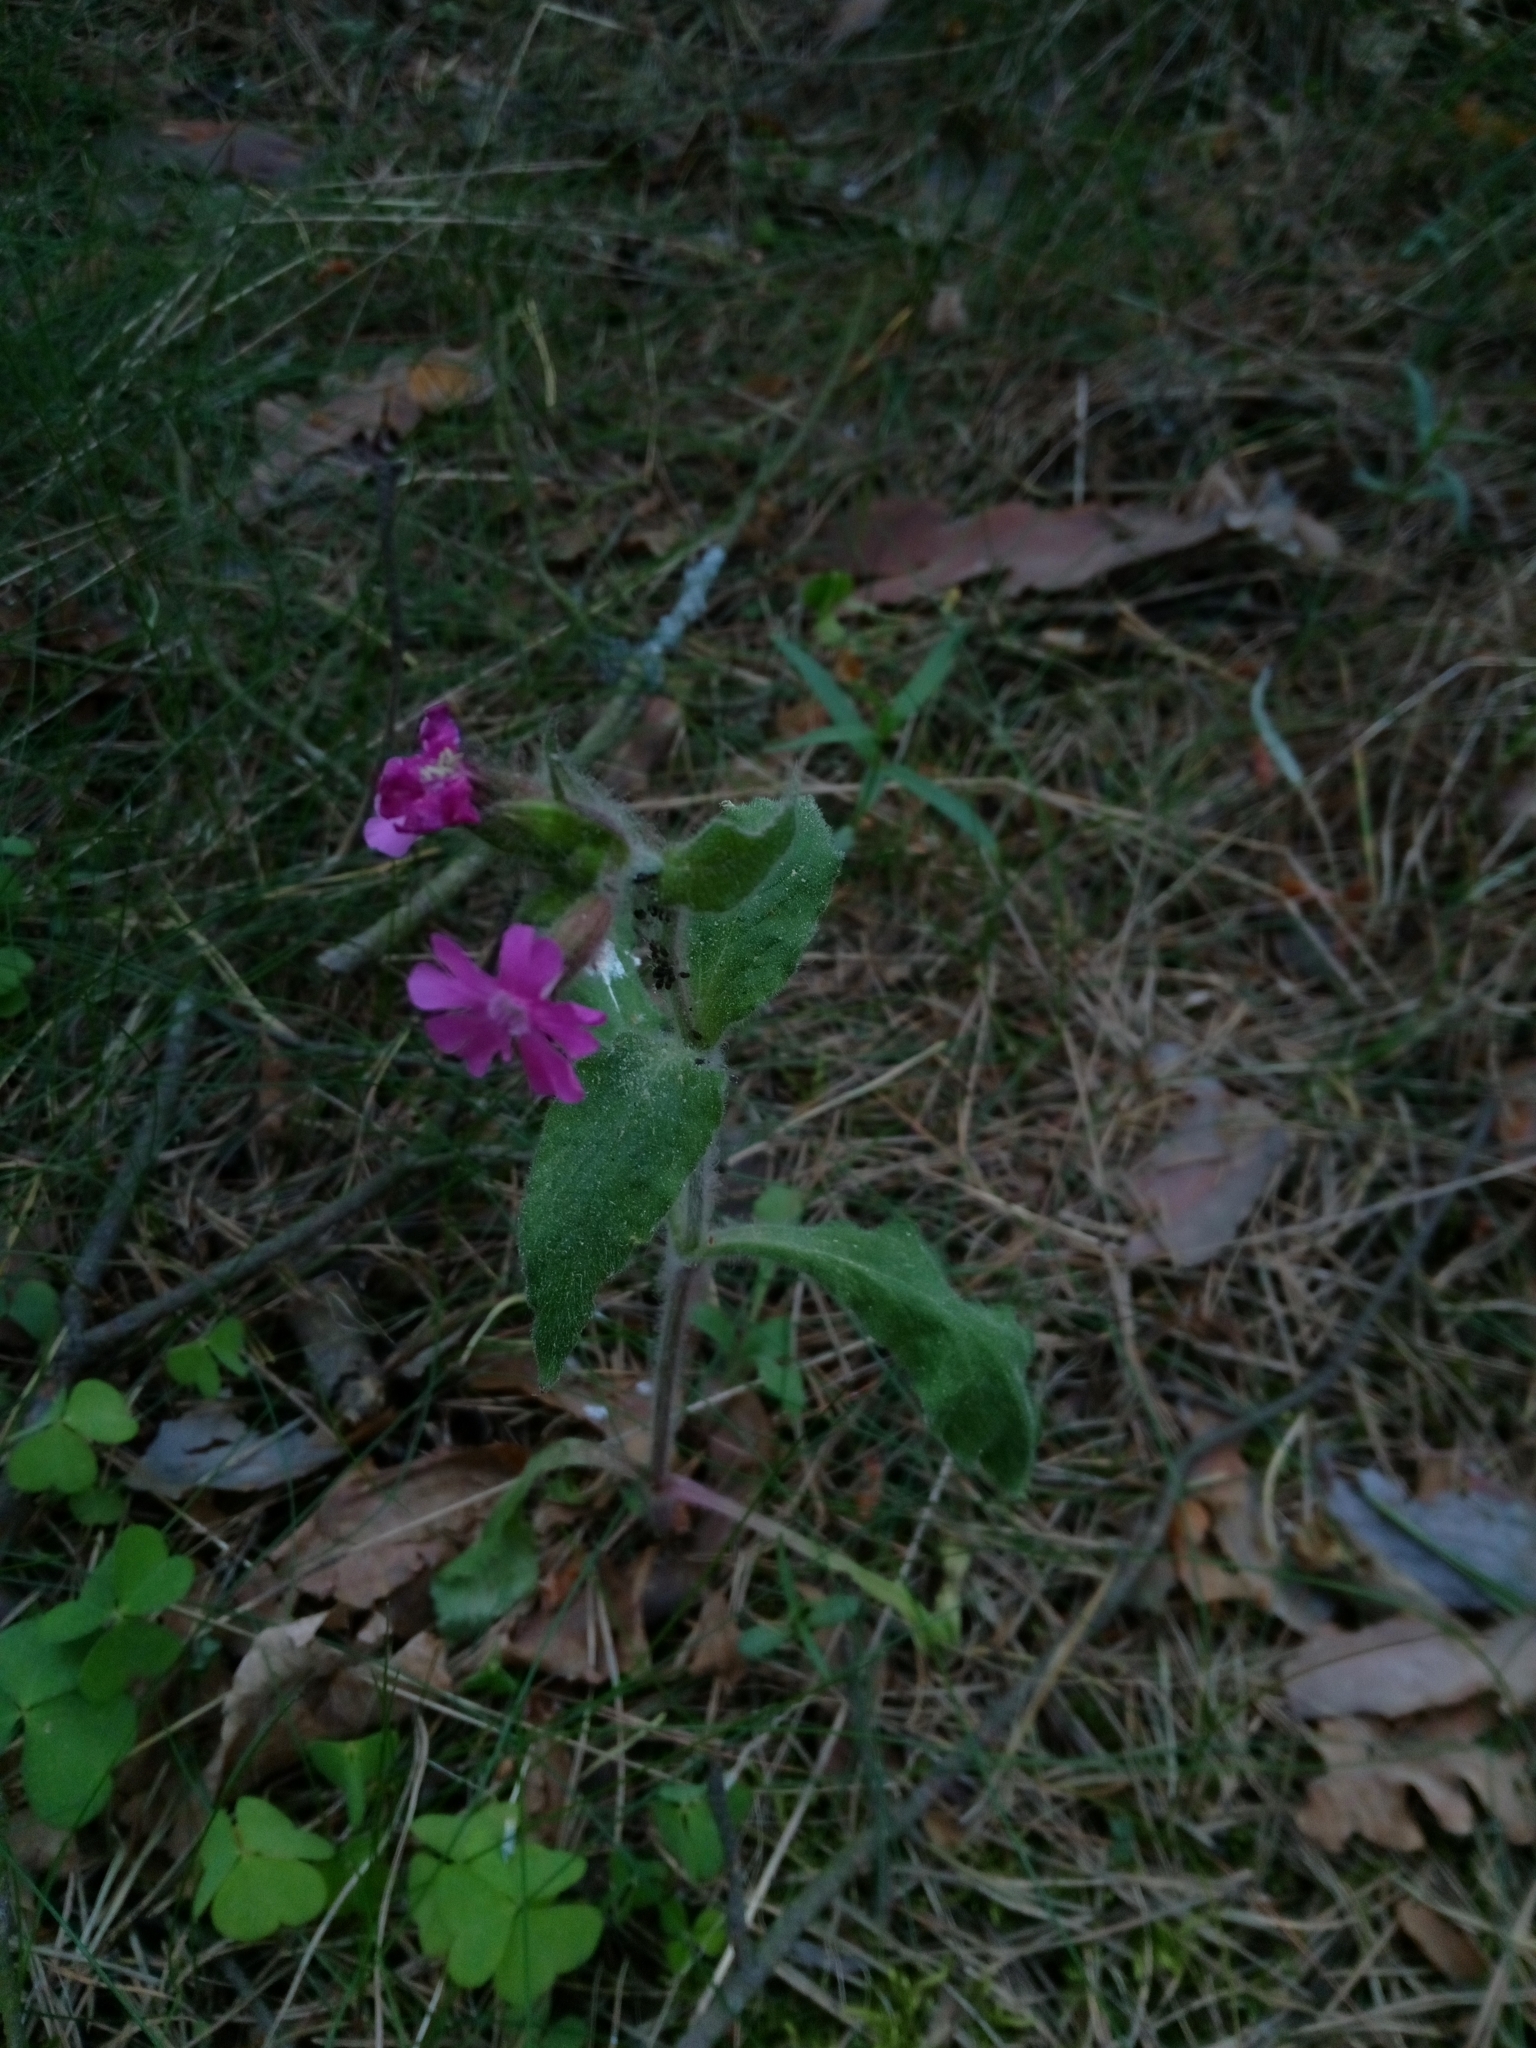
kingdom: Plantae
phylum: Tracheophyta
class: Magnoliopsida
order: Caryophyllales
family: Caryophyllaceae
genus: Silene
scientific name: Silene dioica
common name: Red campion
